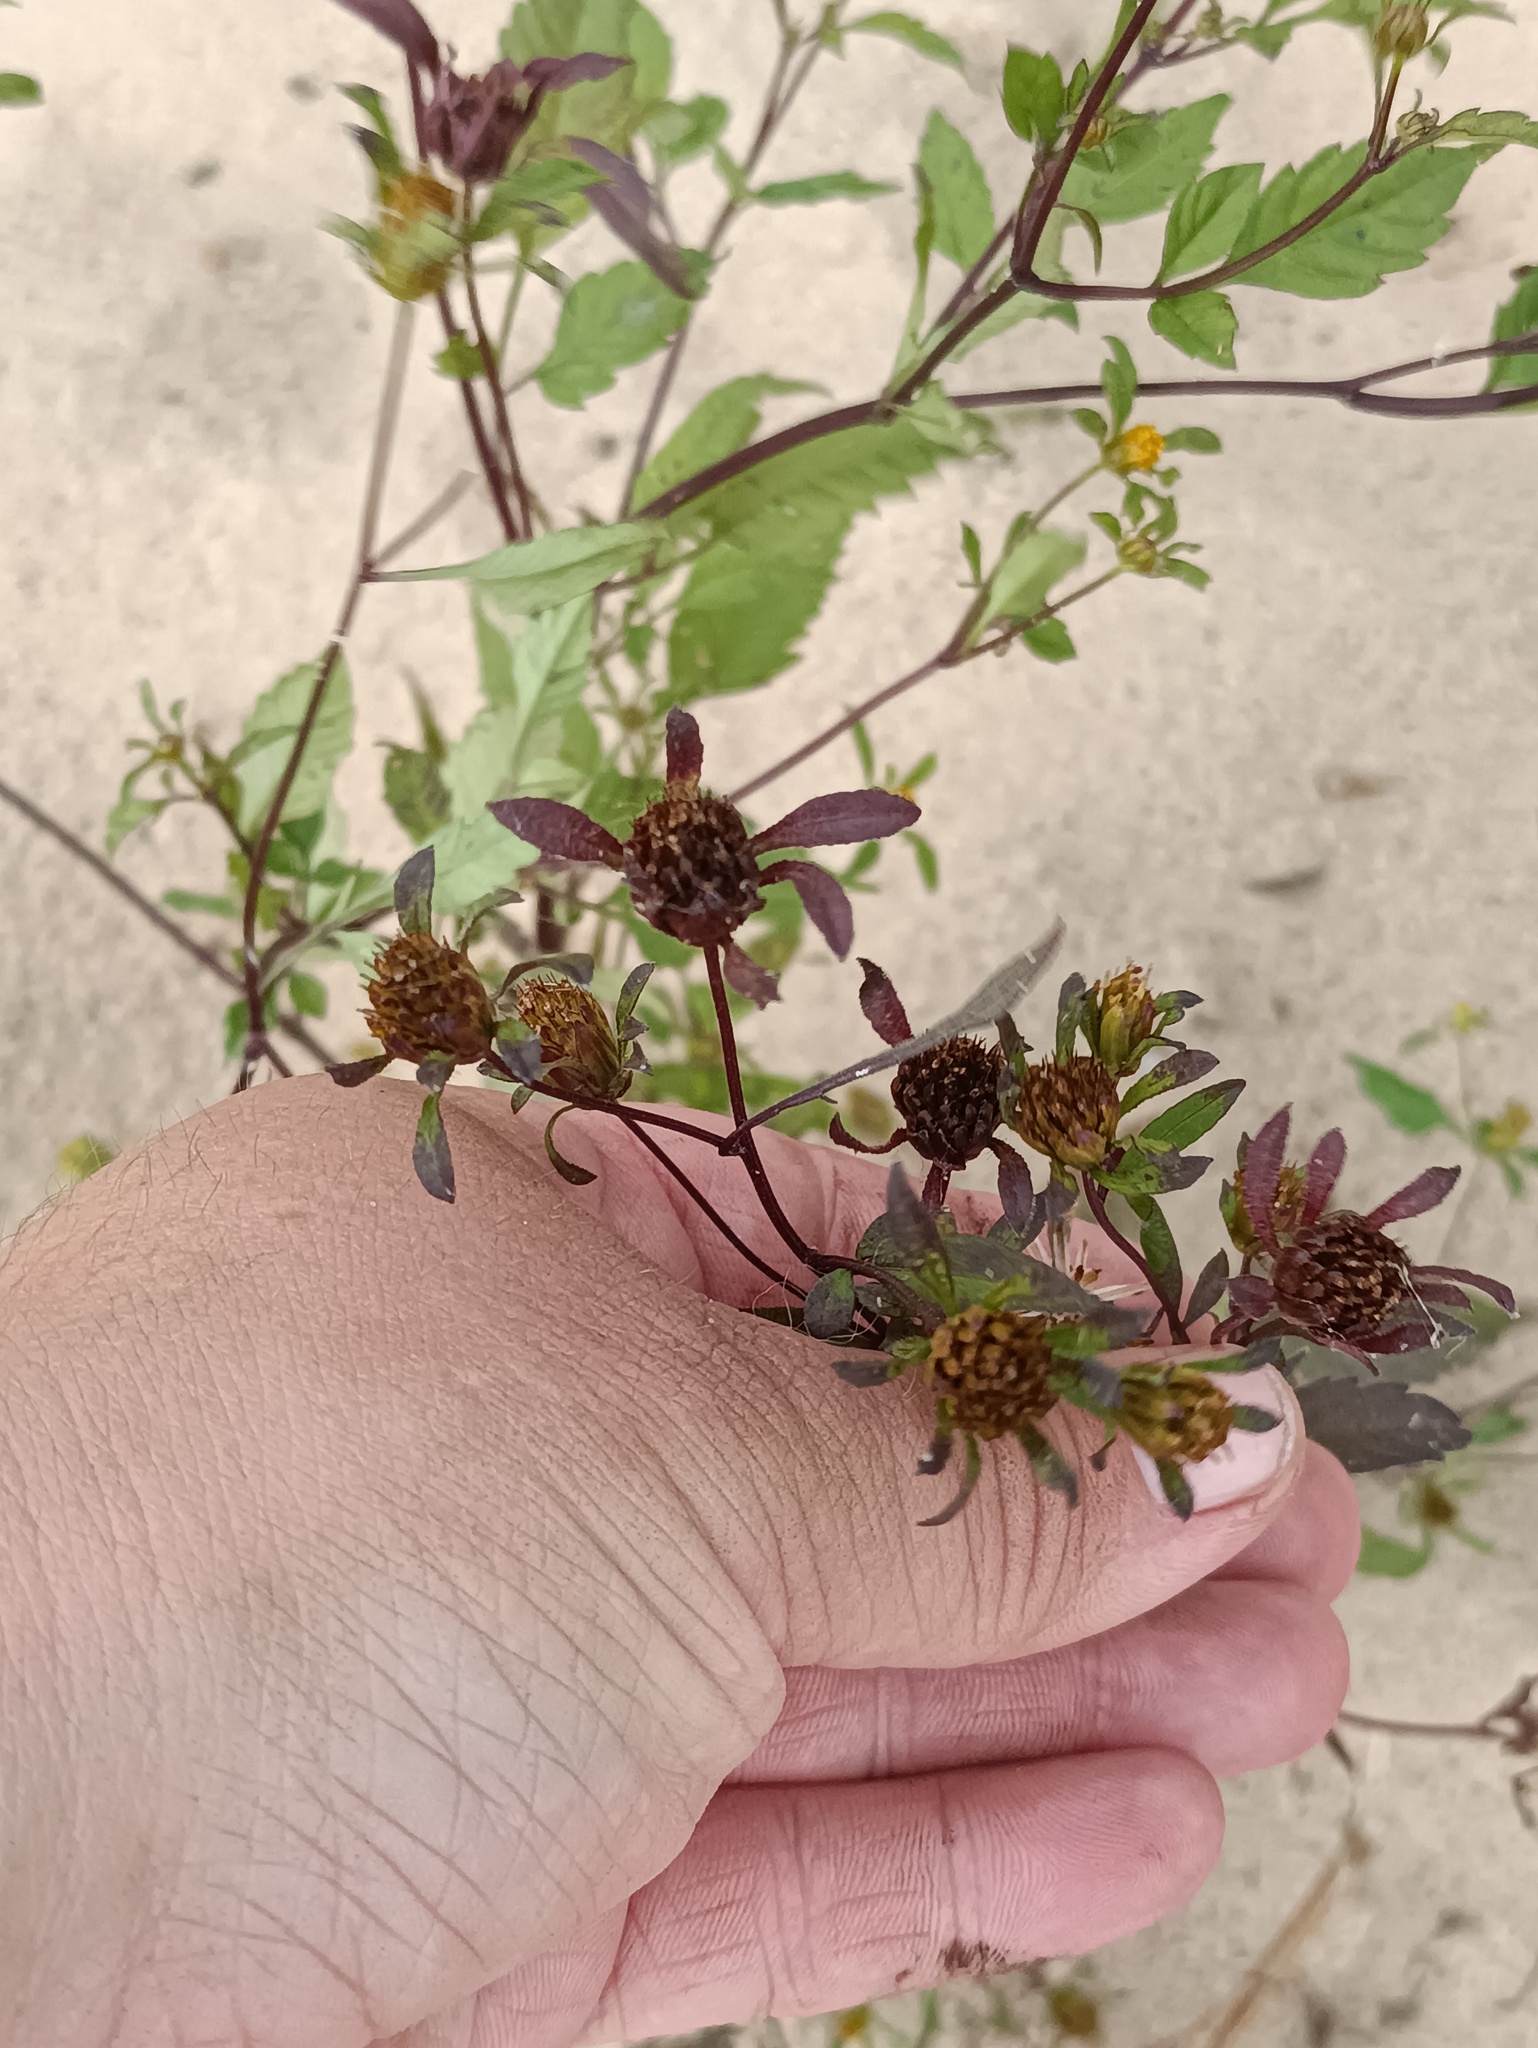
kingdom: Plantae
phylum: Tracheophyta
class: Magnoliopsida
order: Asterales
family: Asteraceae
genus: Bidens
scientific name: Bidens frondosa
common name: Beggarticks
